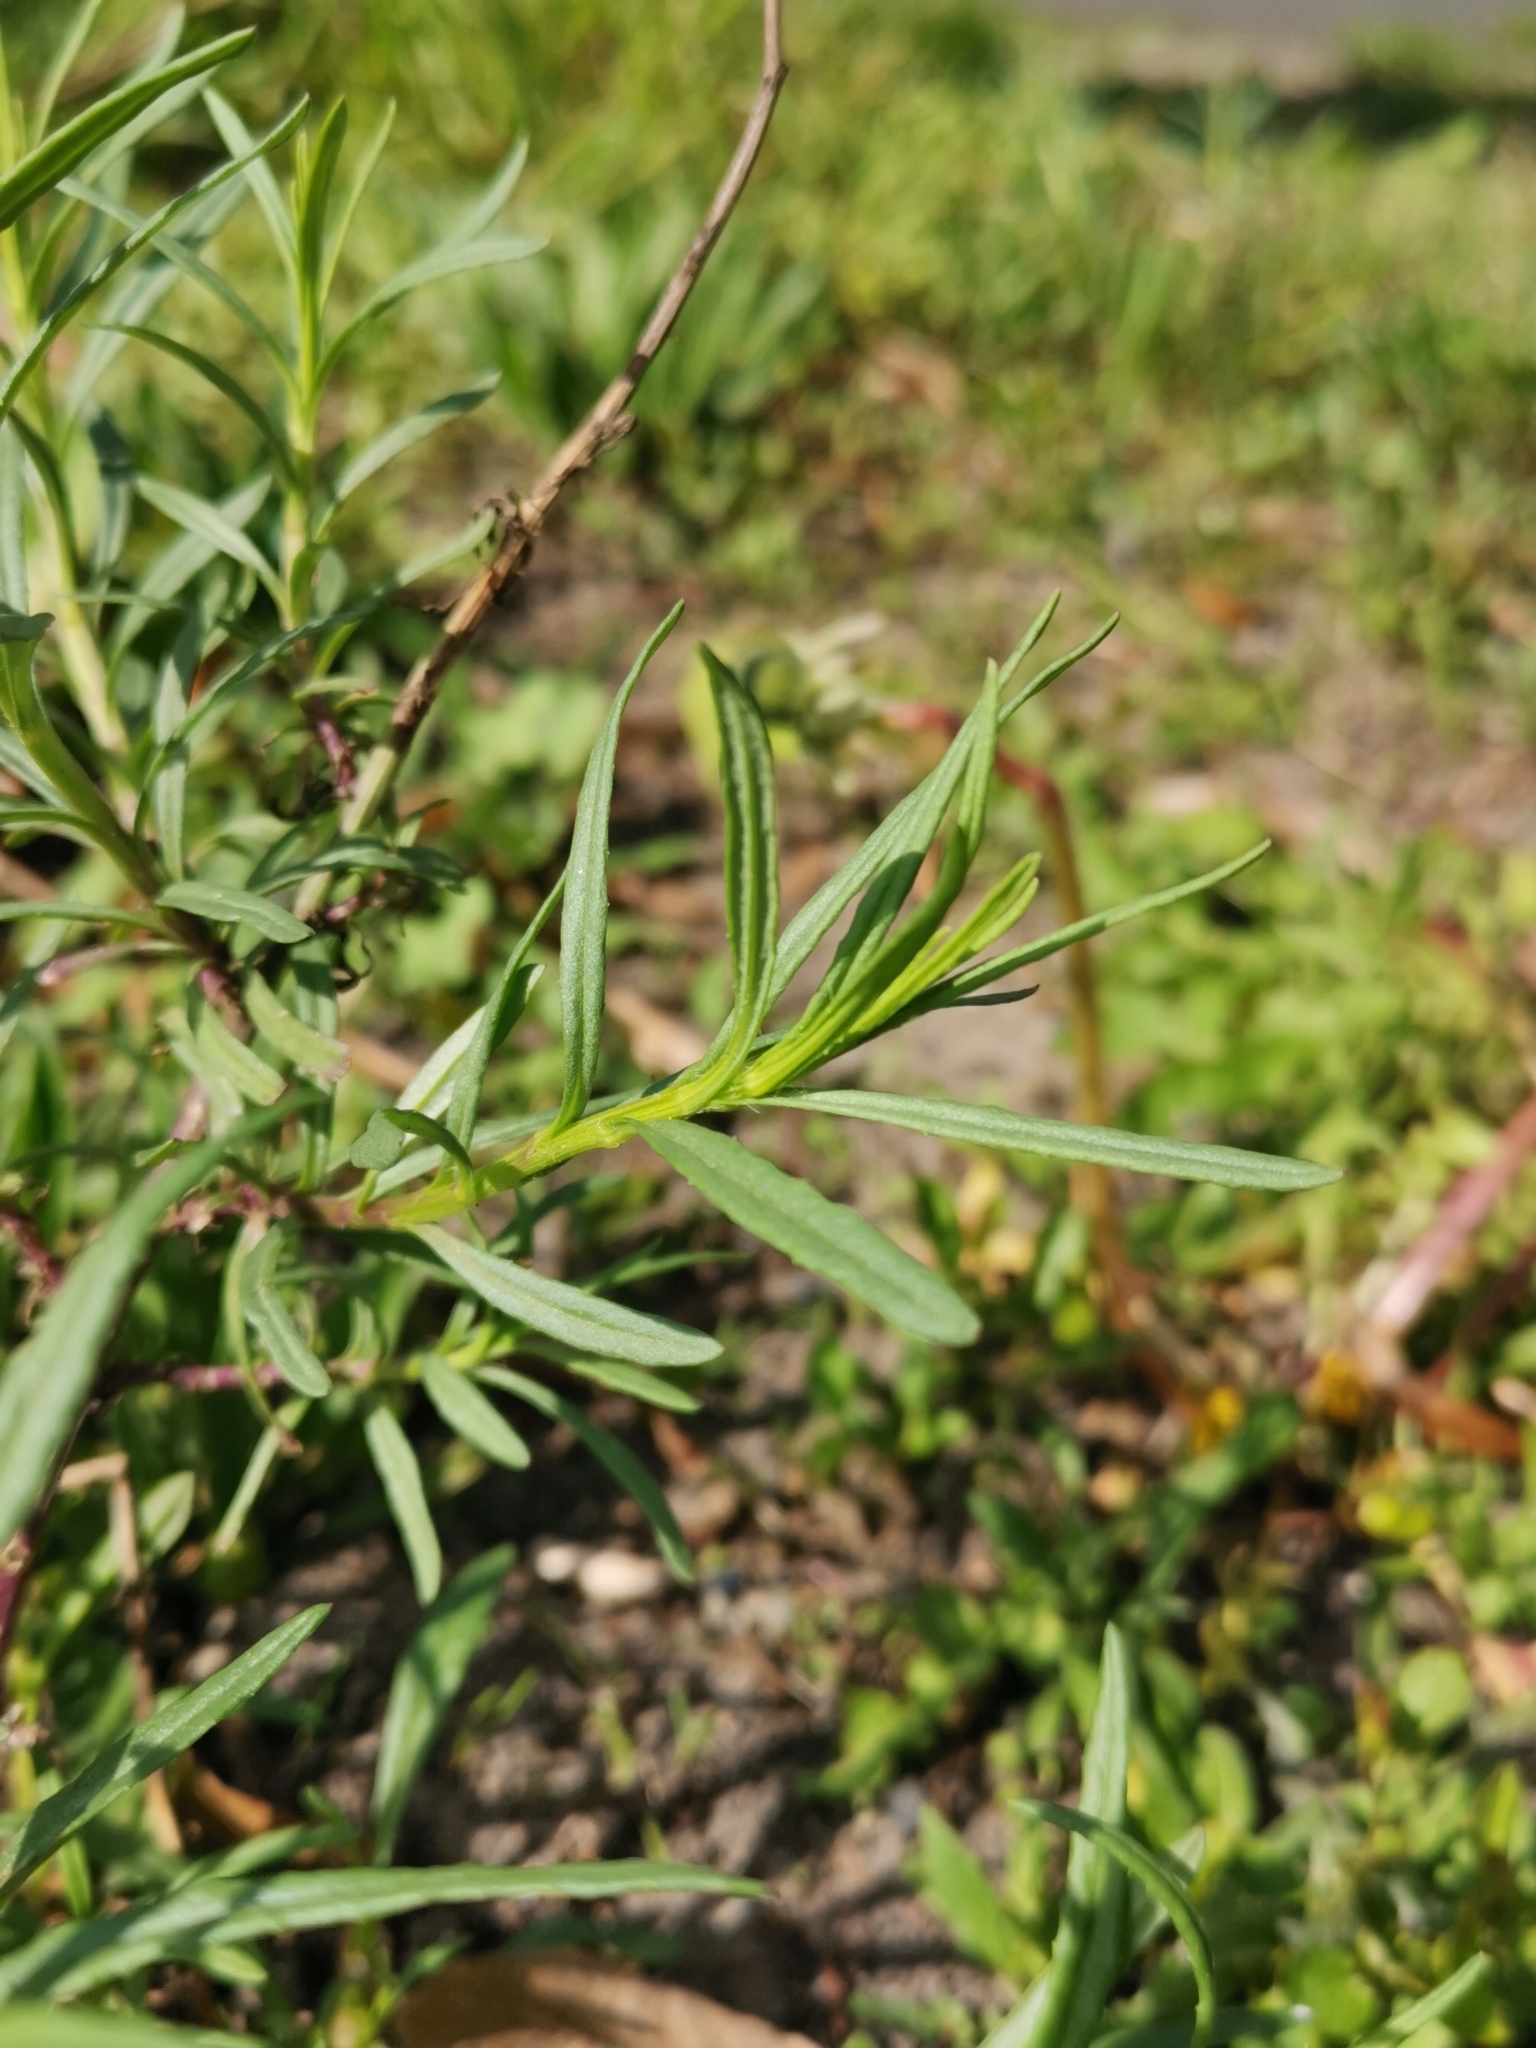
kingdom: Plantae
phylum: Tracheophyta
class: Magnoliopsida
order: Asterales
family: Asteraceae
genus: Senecio
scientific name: Senecio inaequidens
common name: Narrow-leaved ragwort
